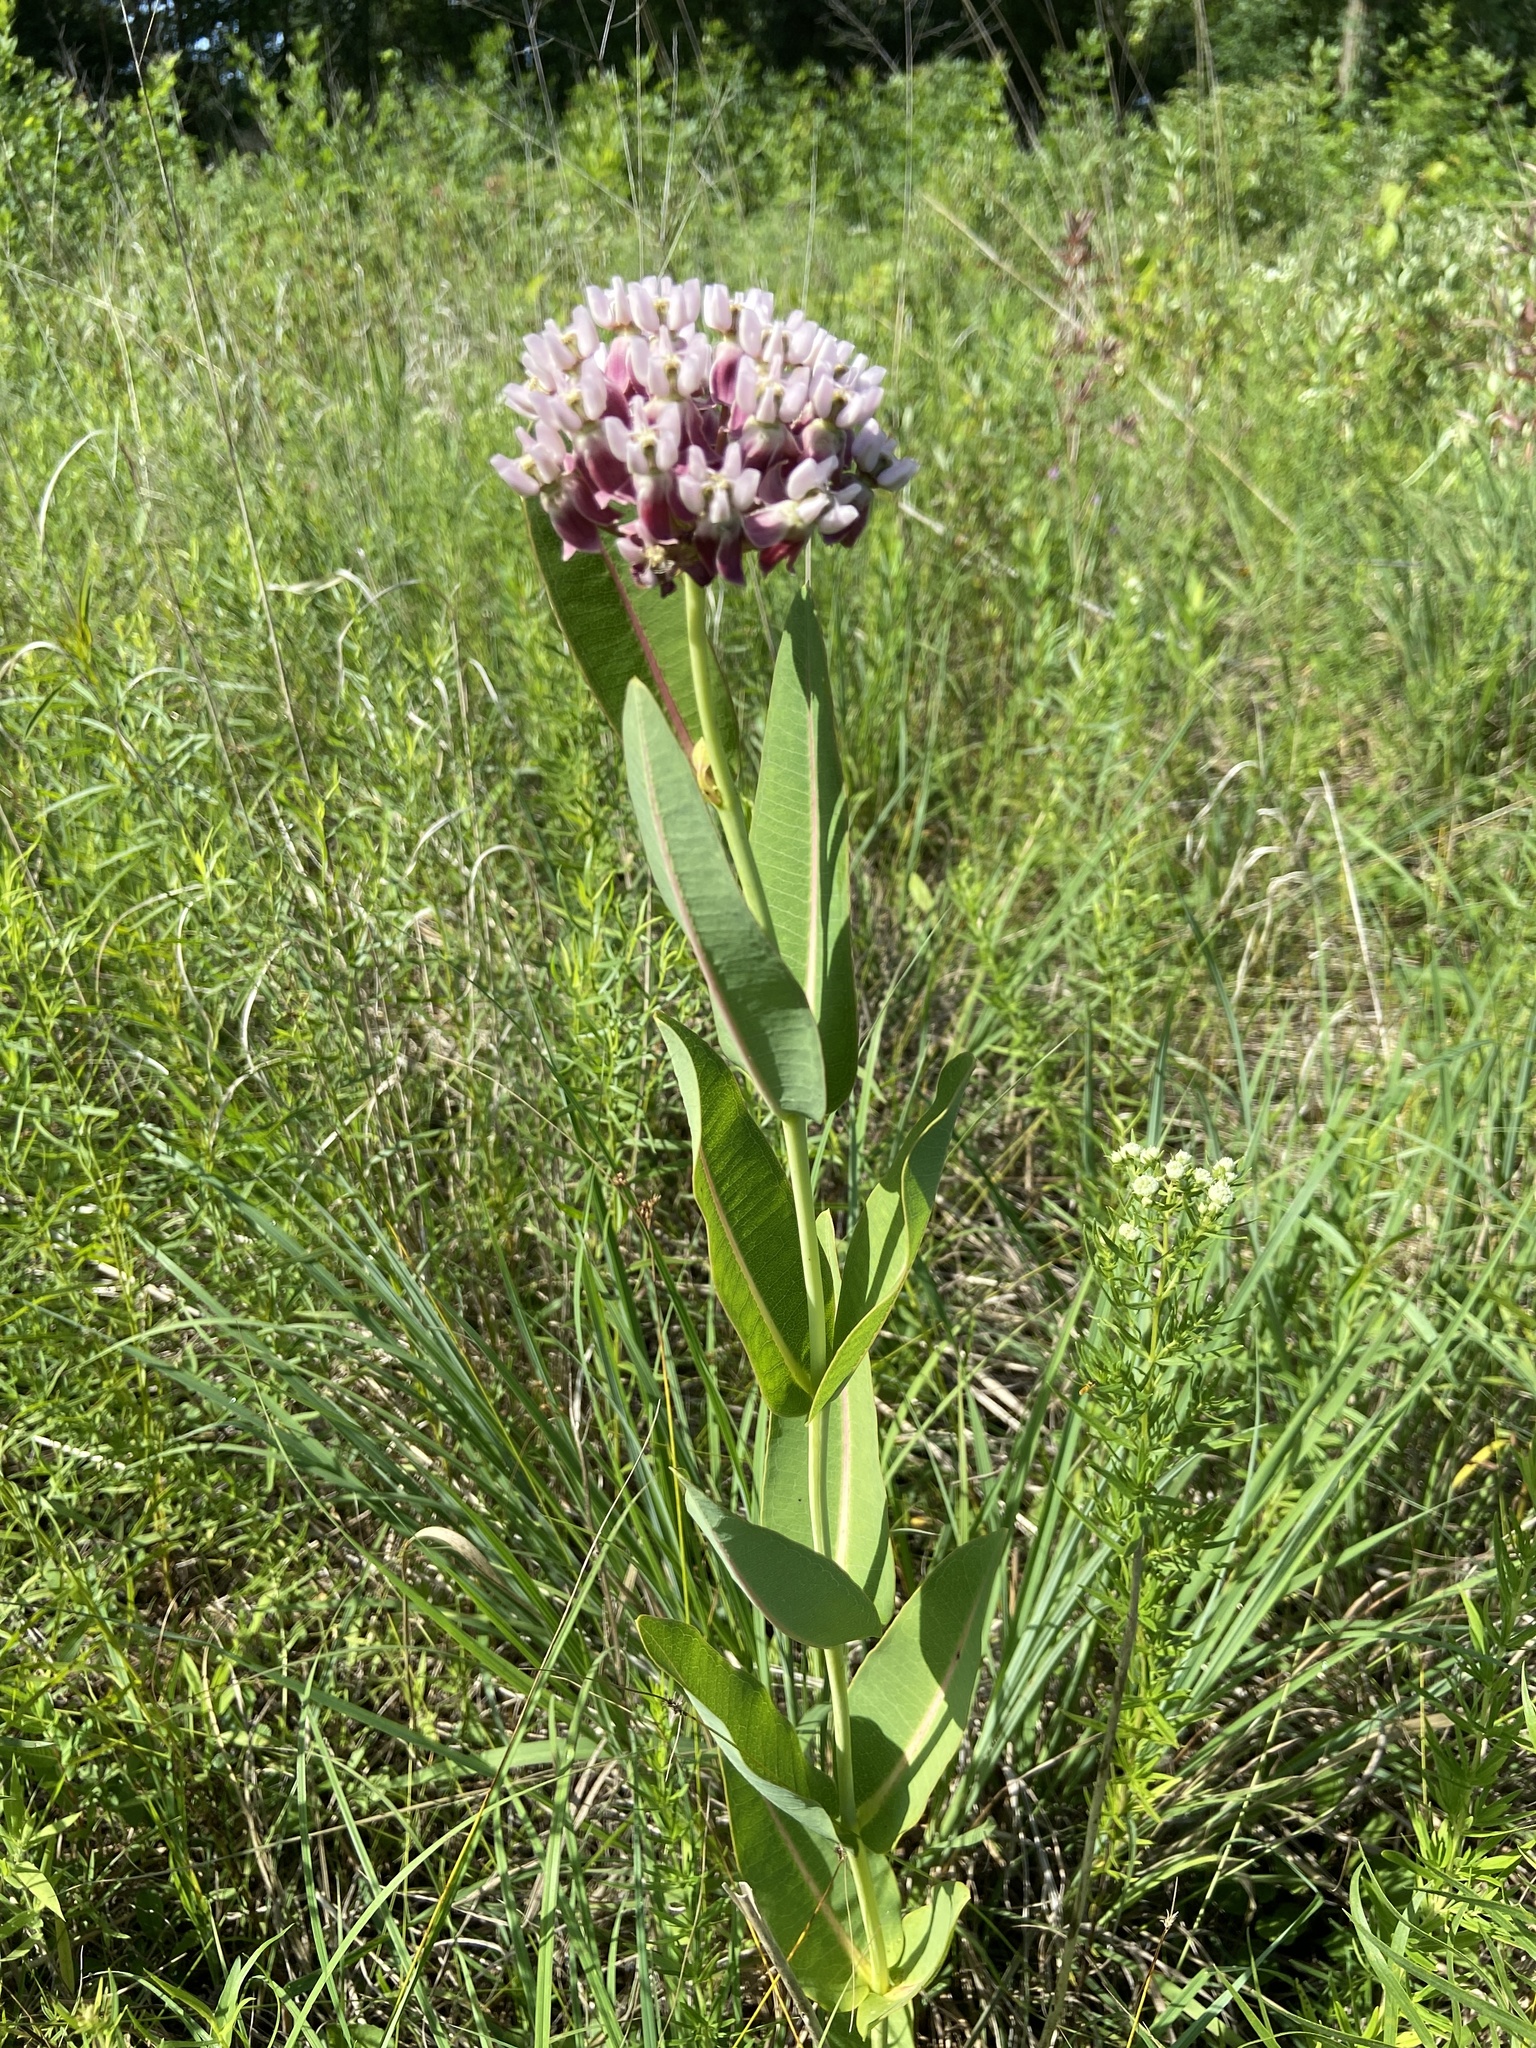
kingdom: Plantae
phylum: Tracheophyta
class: Magnoliopsida
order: Gentianales
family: Apocynaceae
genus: Asclepias
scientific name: Asclepias sullivantii
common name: Prairie milkweed
